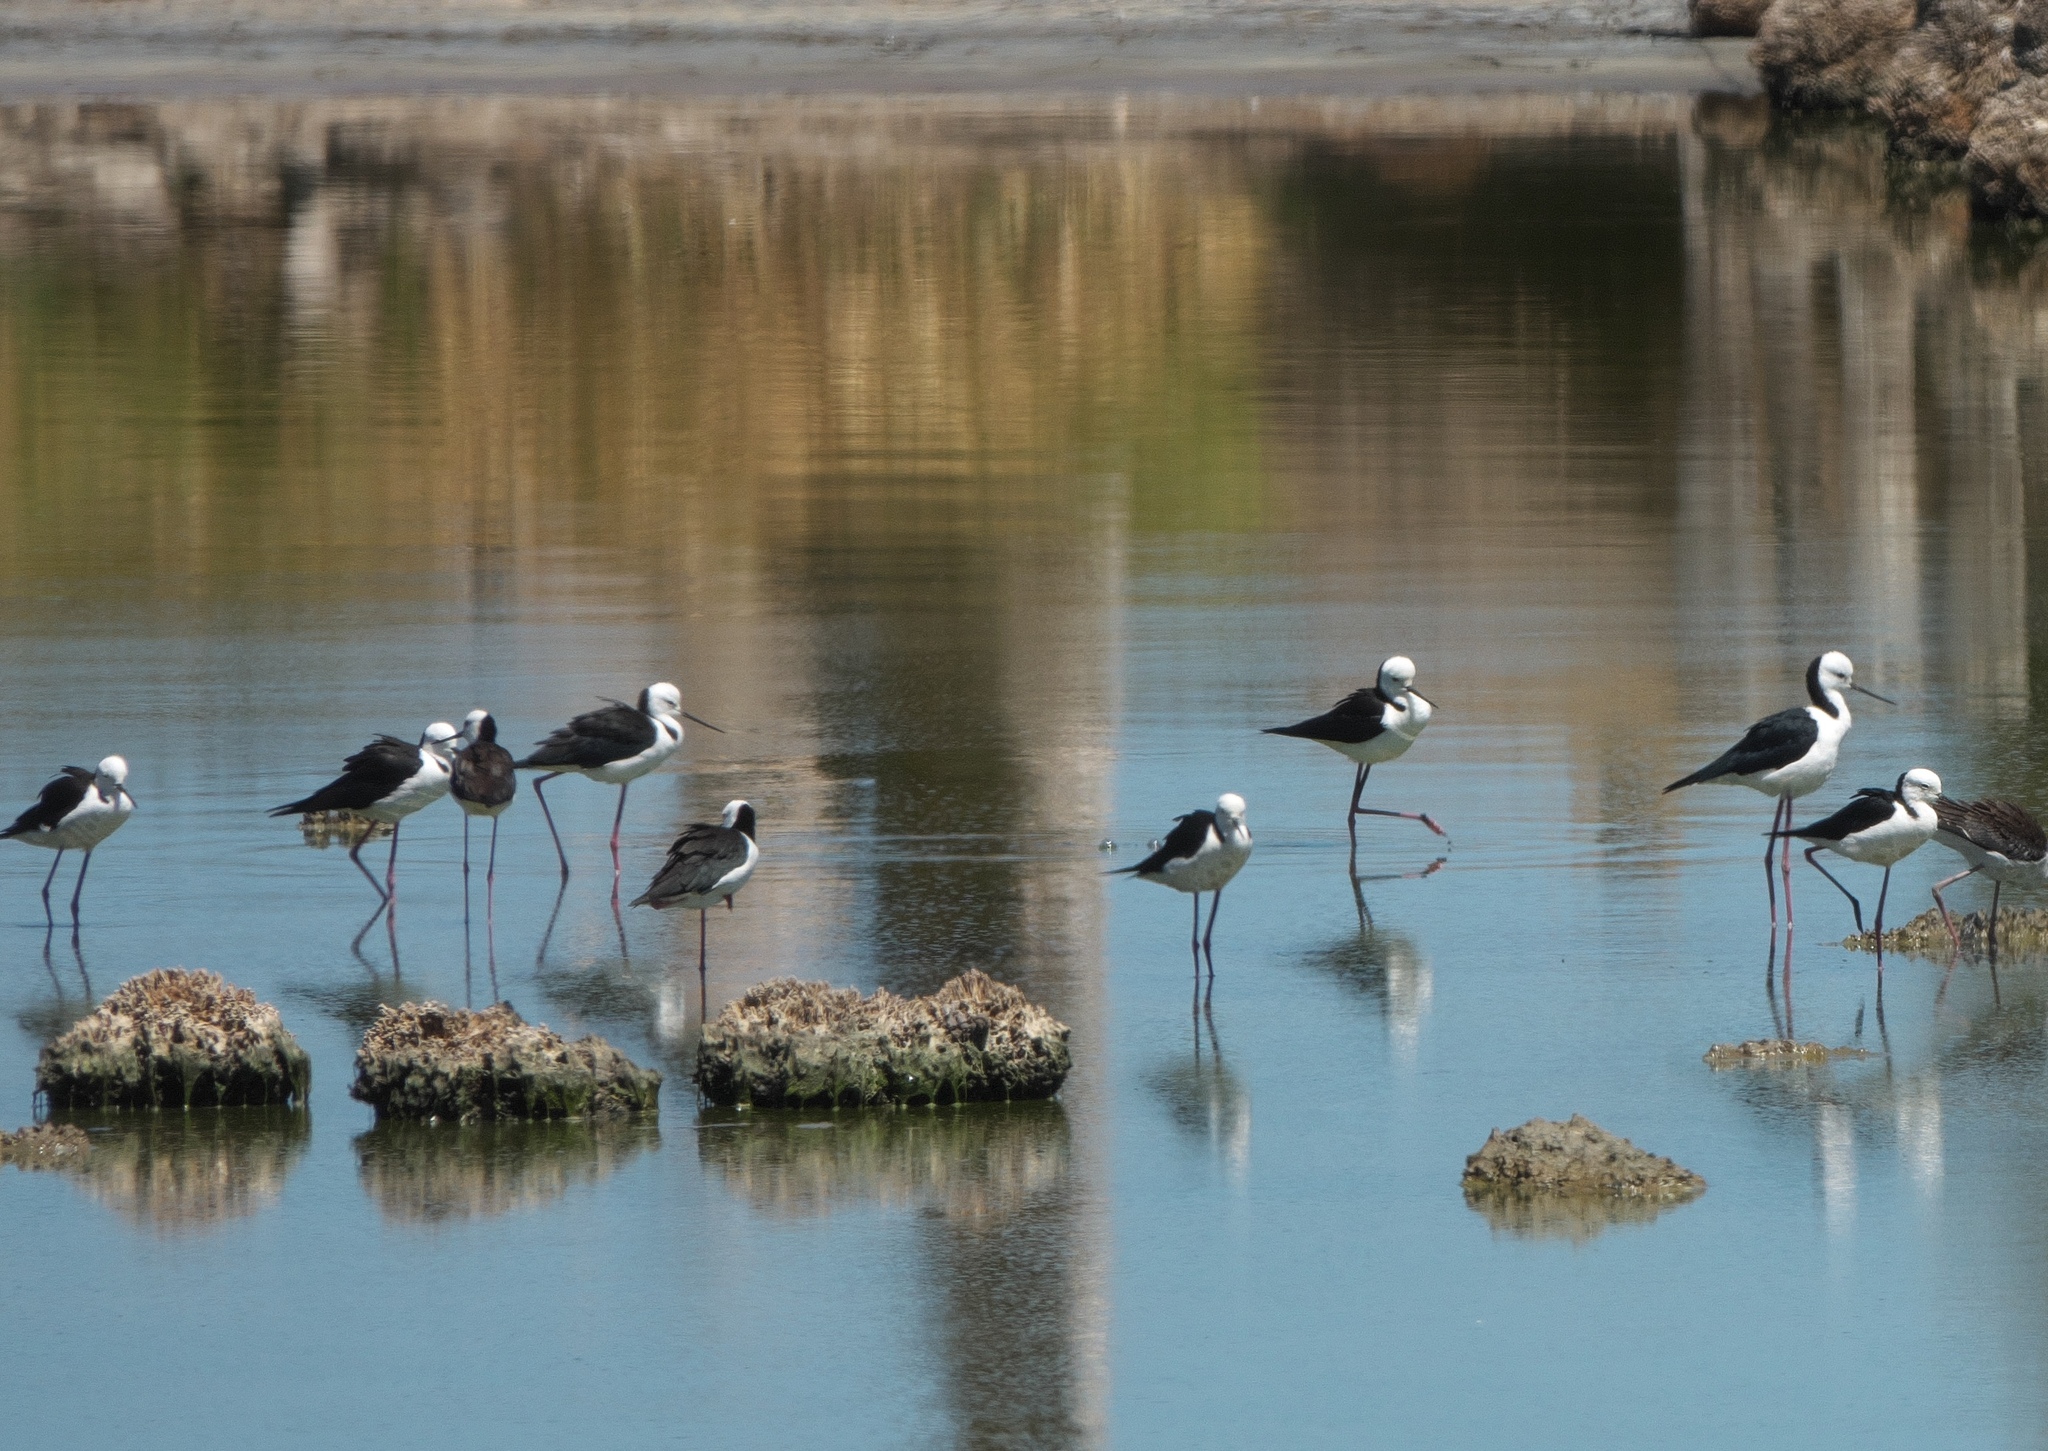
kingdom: Animalia
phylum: Chordata
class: Aves
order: Charadriiformes
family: Recurvirostridae
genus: Himantopus
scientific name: Himantopus leucocephalus
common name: White-headed stilt
